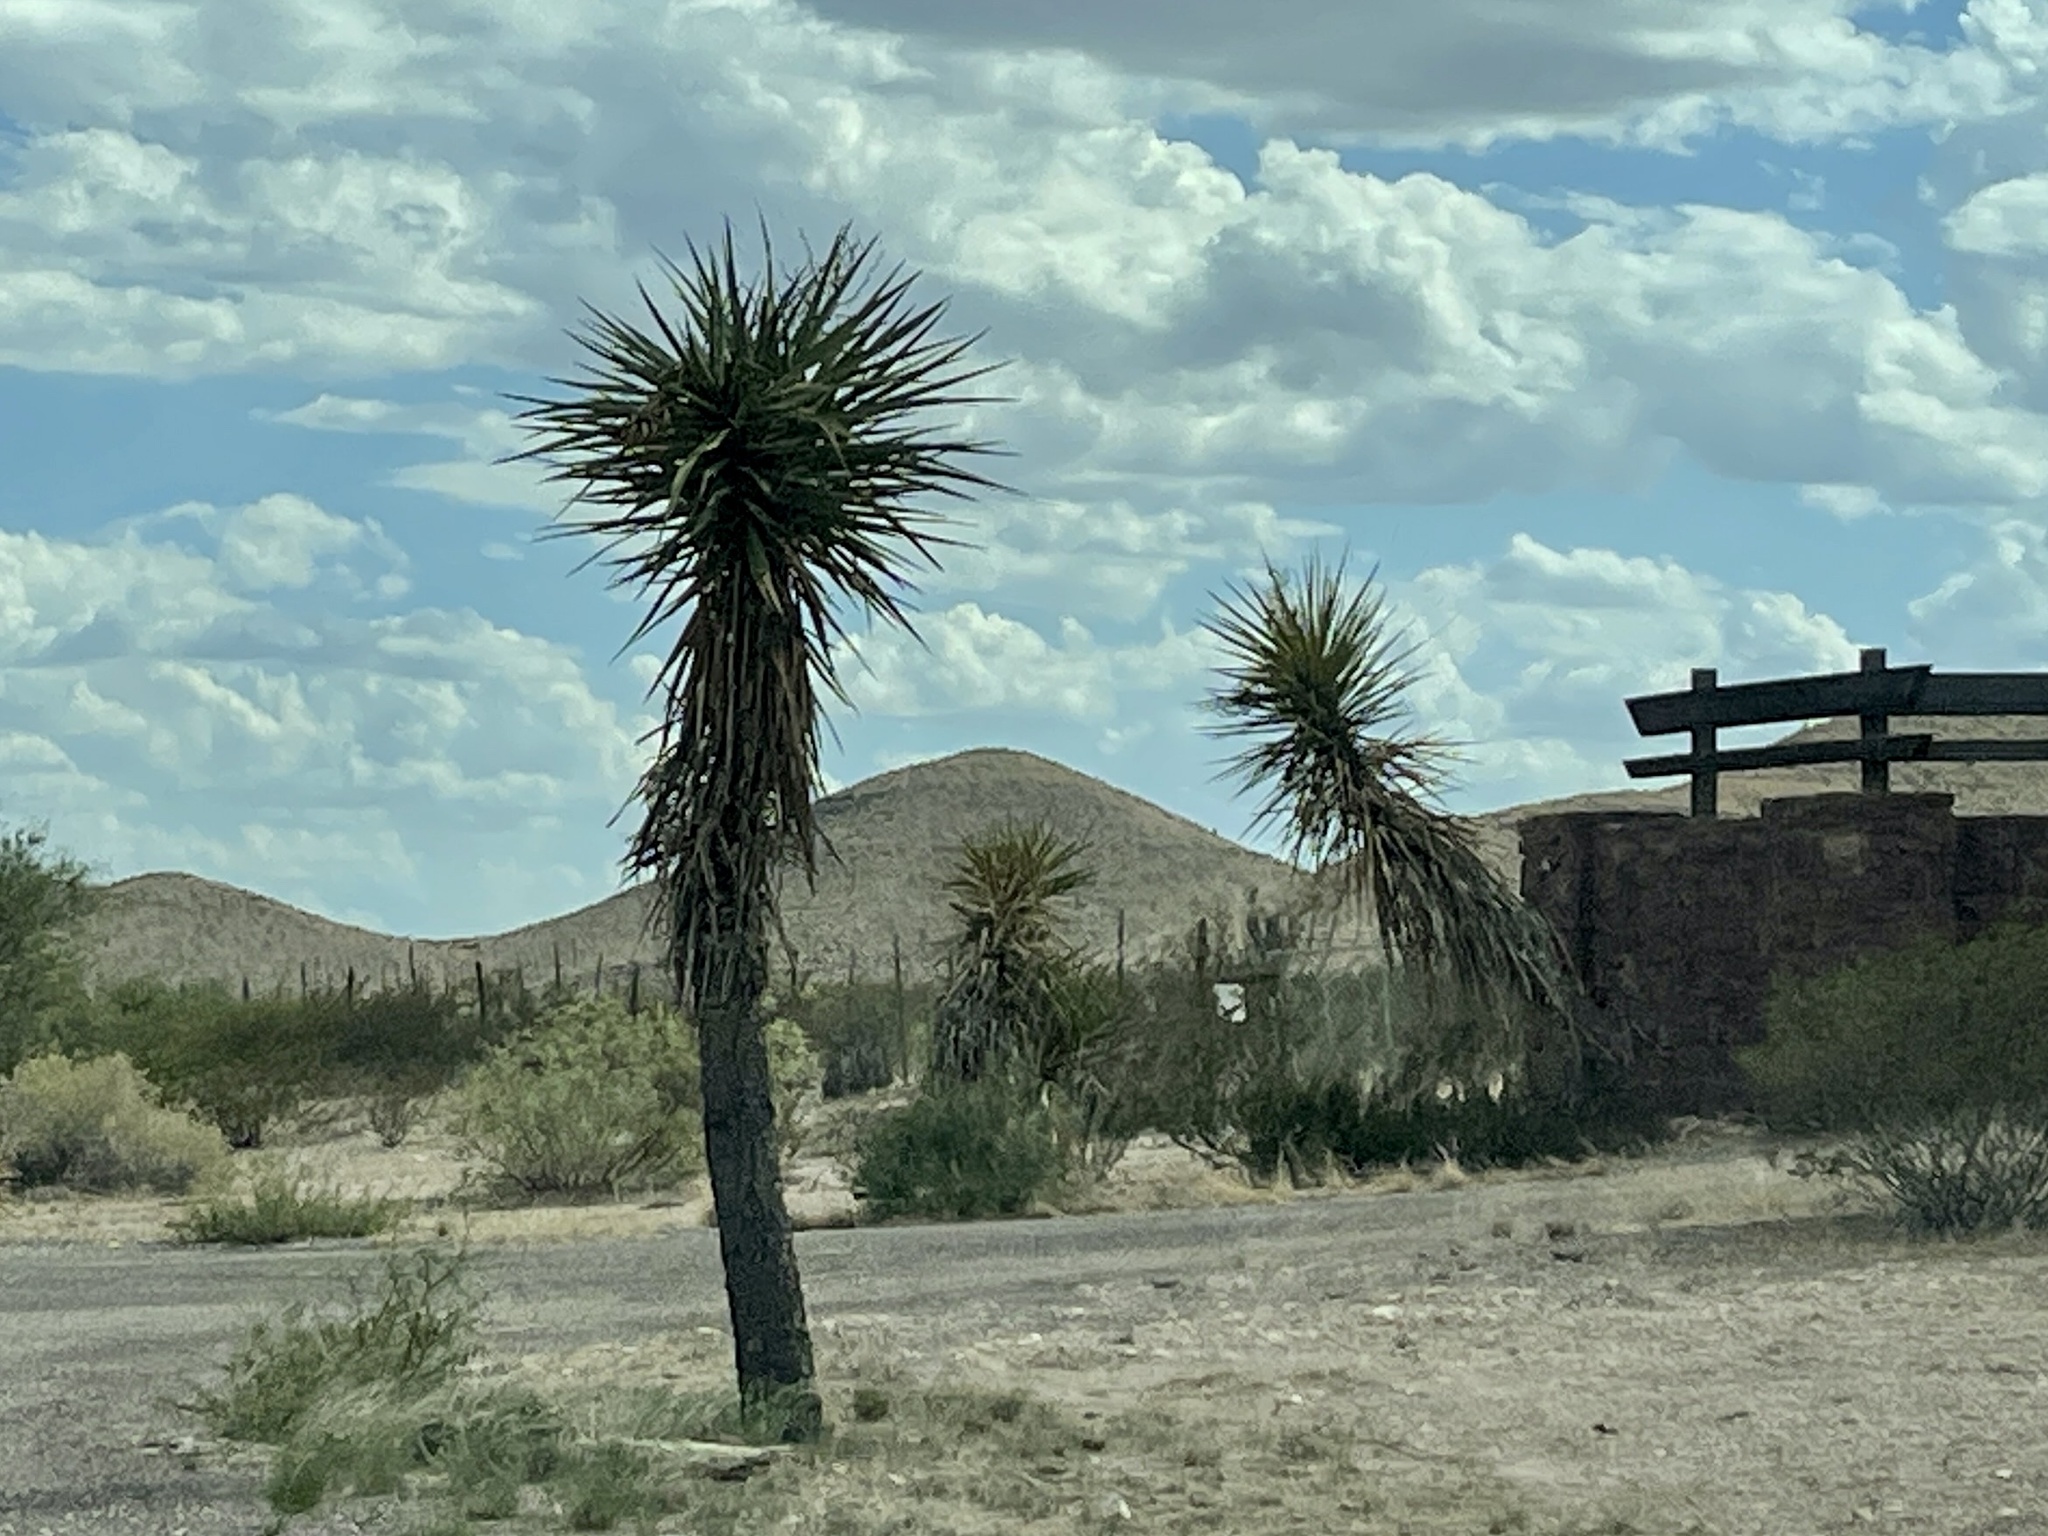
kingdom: Plantae
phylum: Tracheophyta
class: Liliopsida
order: Asparagales
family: Asparagaceae
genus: Yucca
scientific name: Yucca treculiana
